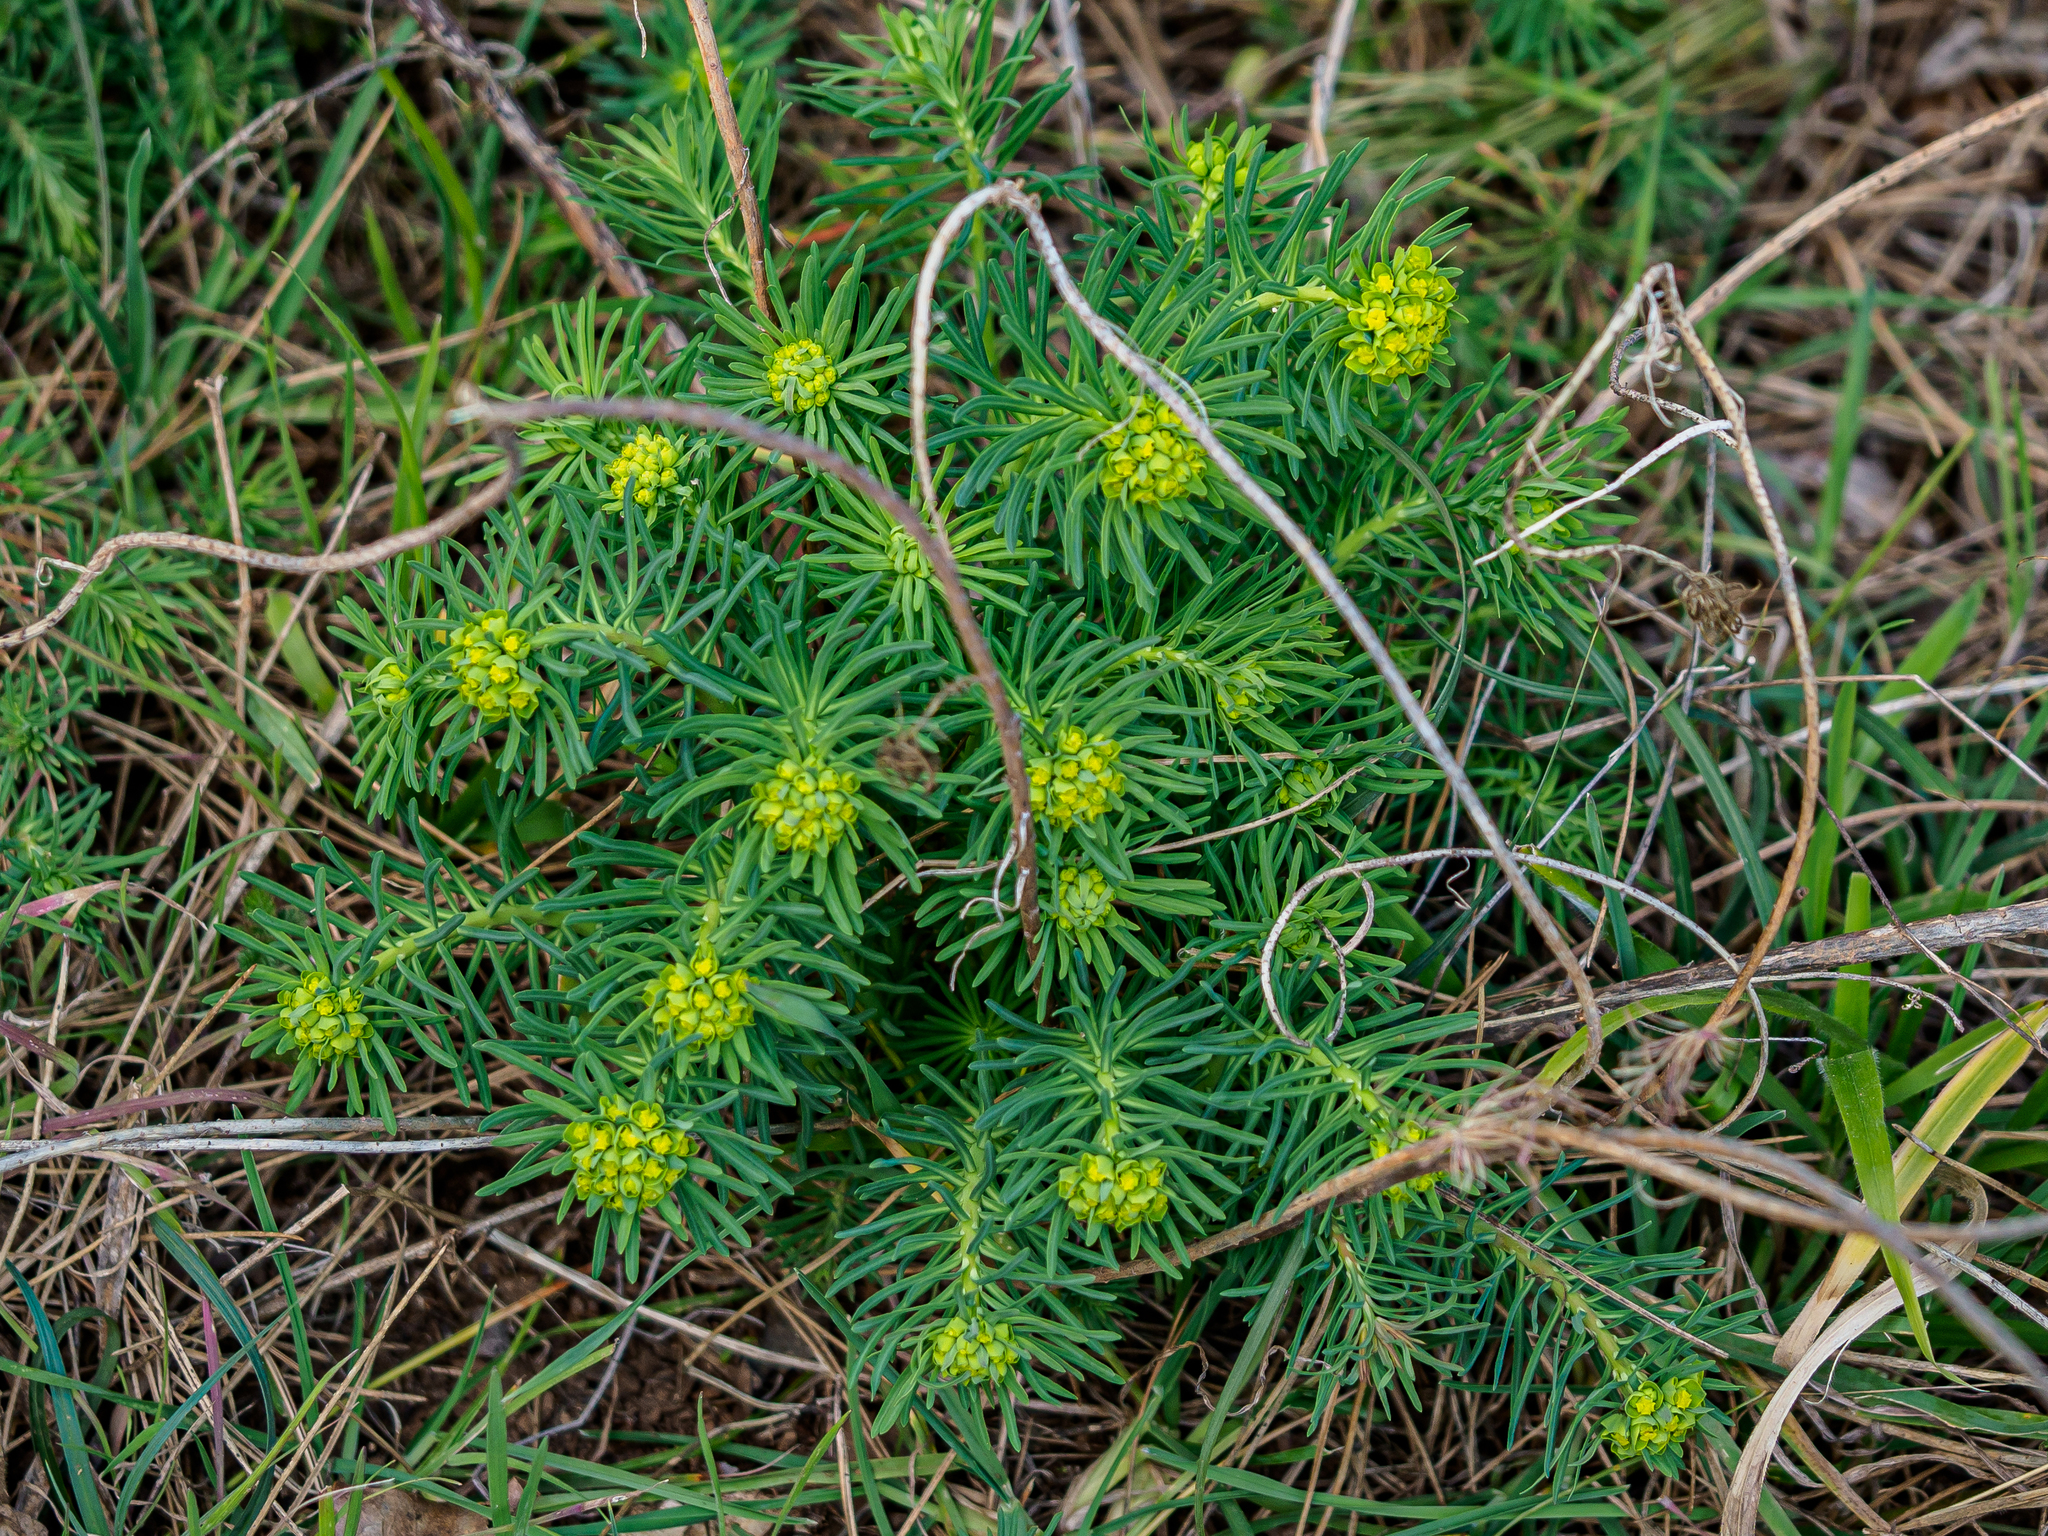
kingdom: Plantae
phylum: Tracheophyta
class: Magnoliopsida
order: Malpighiales
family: Euphorbiaceae
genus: Euphorbia
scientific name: Euphorbia cyparissias
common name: Cypress spurge
